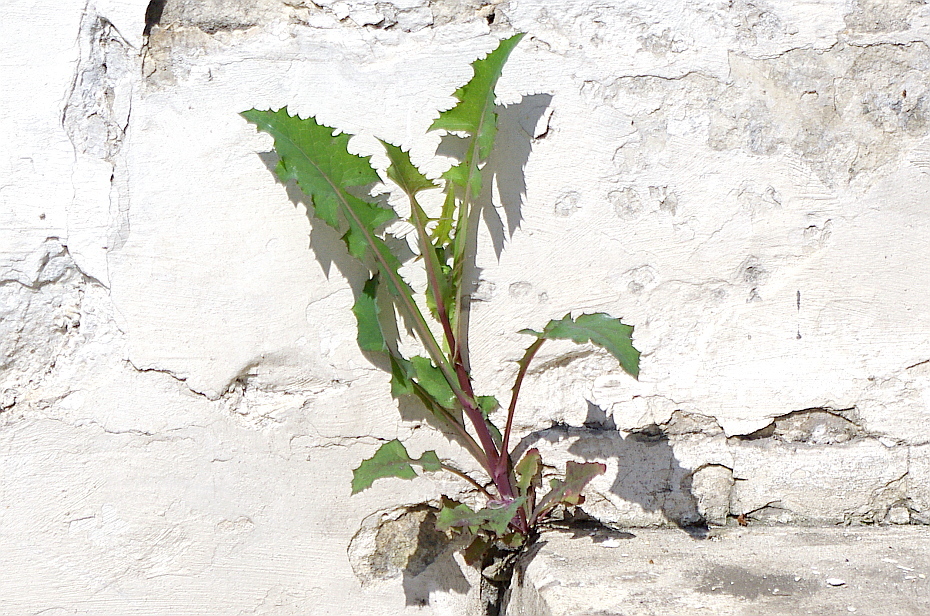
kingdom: Plantae
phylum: Tracheophyta
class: Magnoliopsida
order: Asterales
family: Asteraceae
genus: Sonchus
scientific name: Sonchus oleraceus
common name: Common sowthistle
